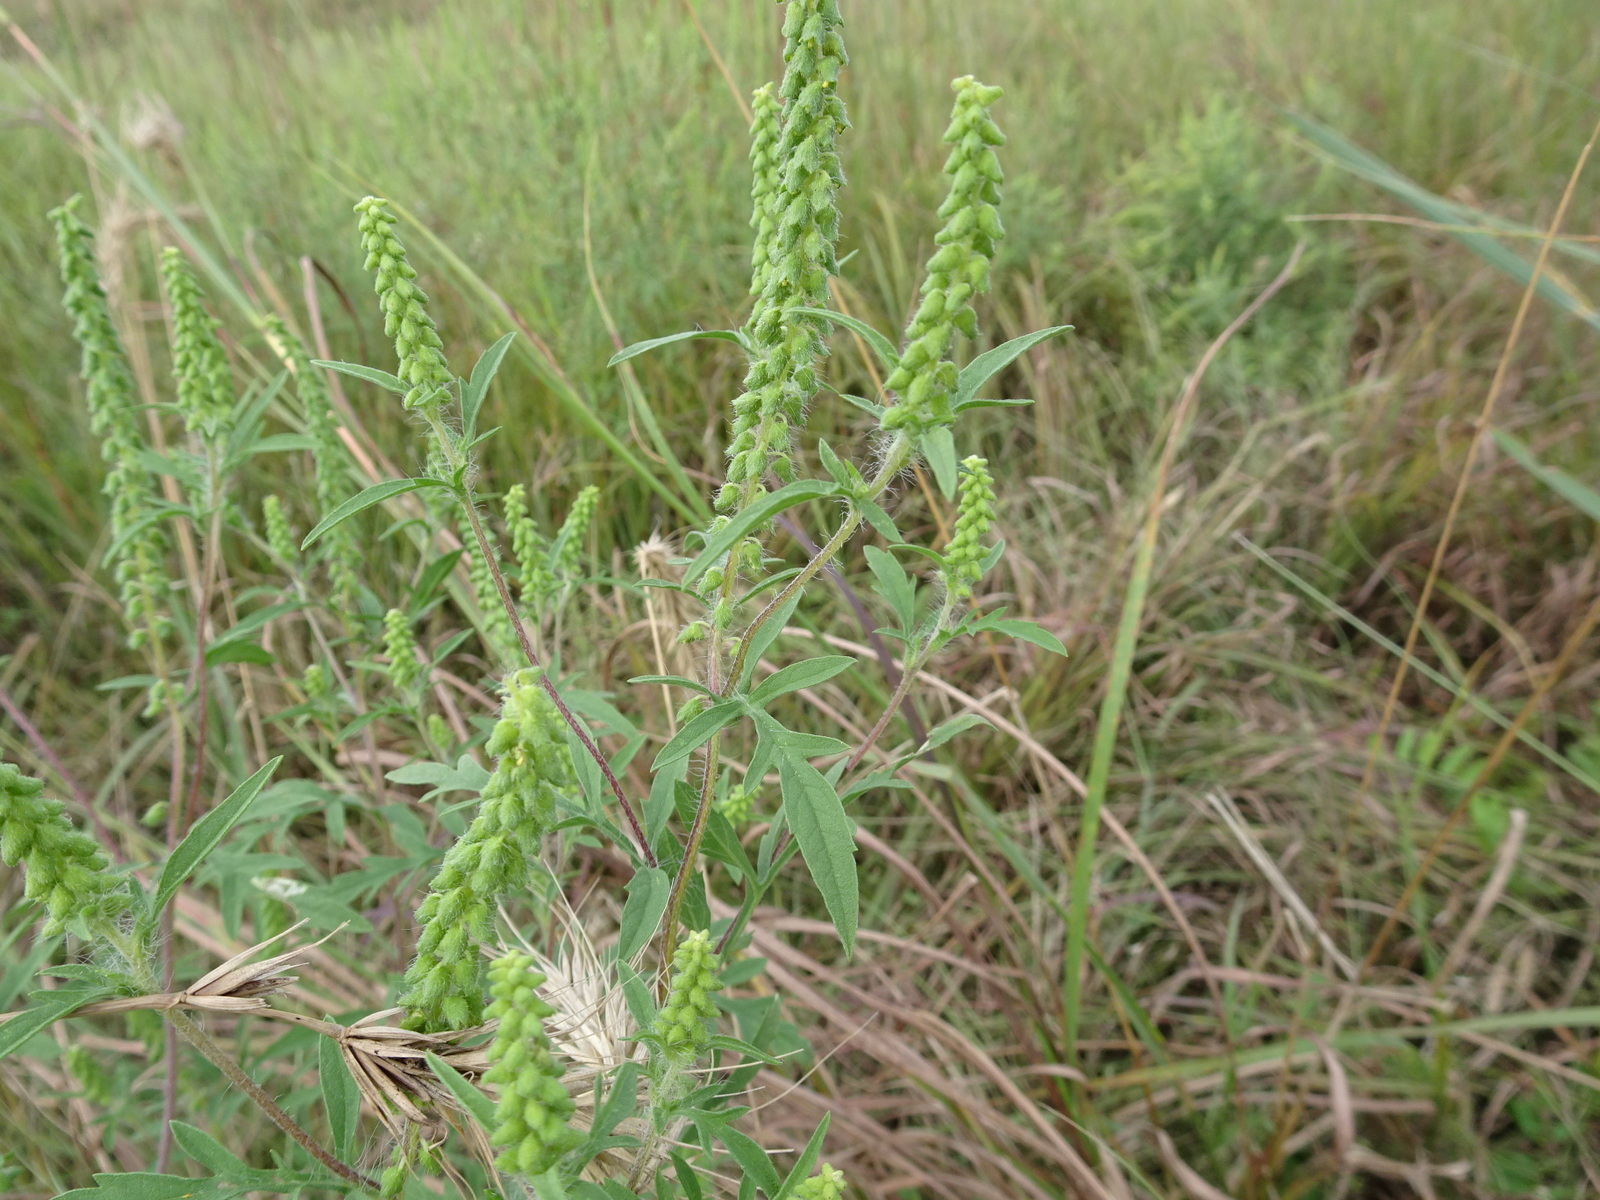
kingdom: Plantae
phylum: Tracheophyta
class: Magnoliopsida
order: Asterales
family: Asteraceae
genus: Ambrosia
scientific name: Ambrosia psilostachya
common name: Perennial ragweed
